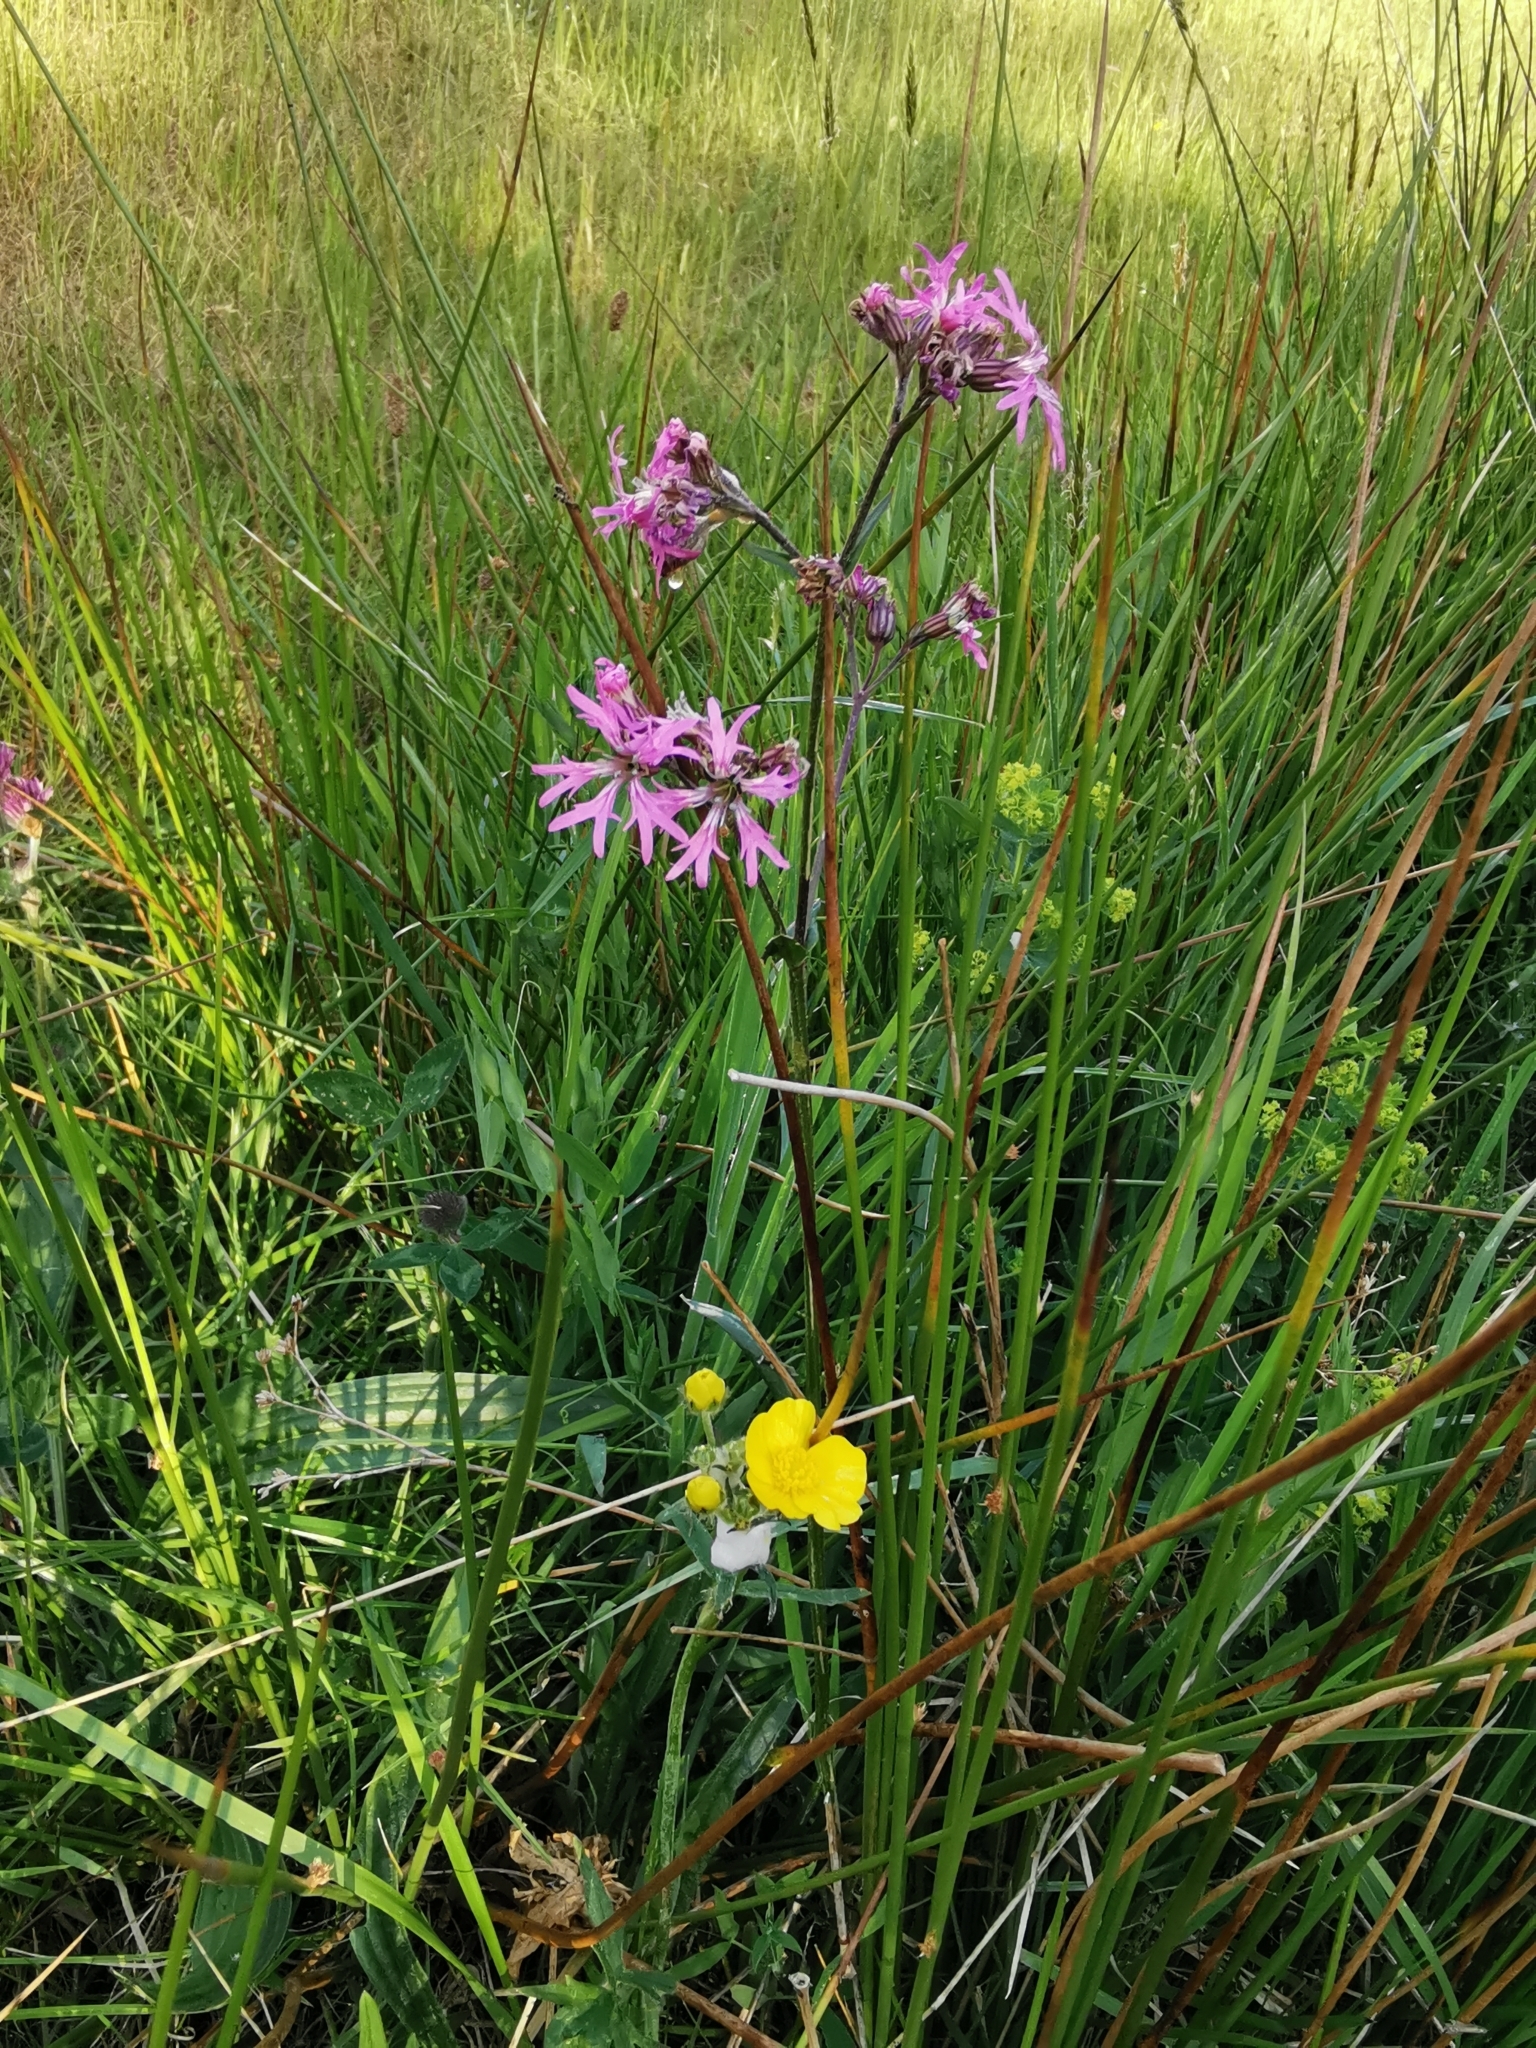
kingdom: Plantae
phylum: Tracheophyta
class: Magnoliopsida
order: Caryophyllales
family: Caryophyllaceae
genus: Silene
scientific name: Silene flos-cuculi
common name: Ragged-robin
